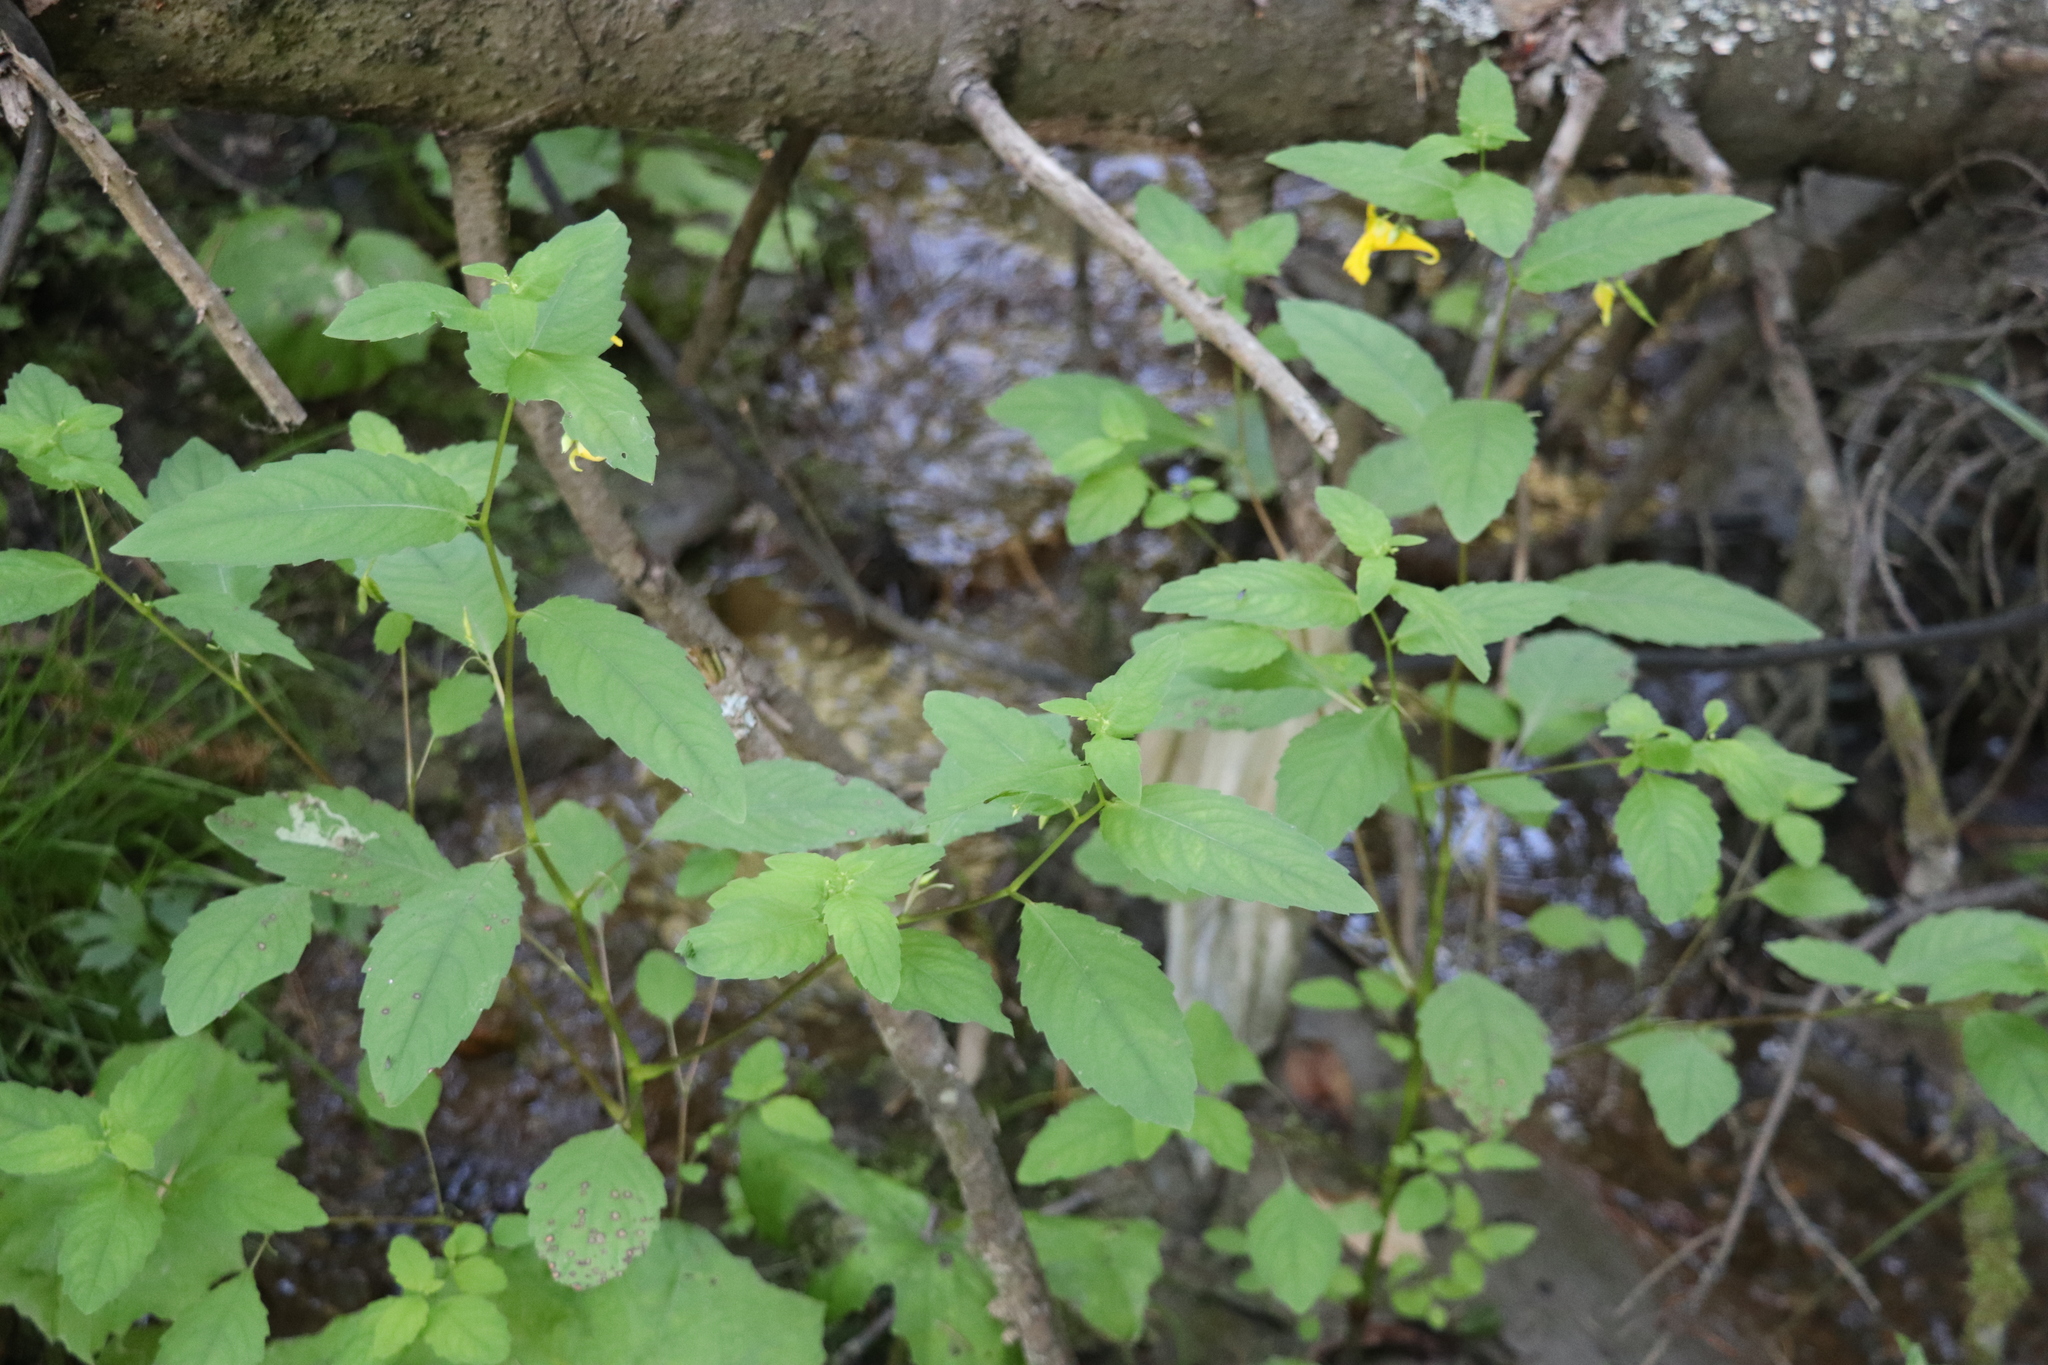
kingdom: Plantae
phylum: Tracheophyta
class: Magnoliopsida
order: Ericales
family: Balsaminaceae
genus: Impatiens
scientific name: Impatiens noli-tangere
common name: Touch-me-not balsam
